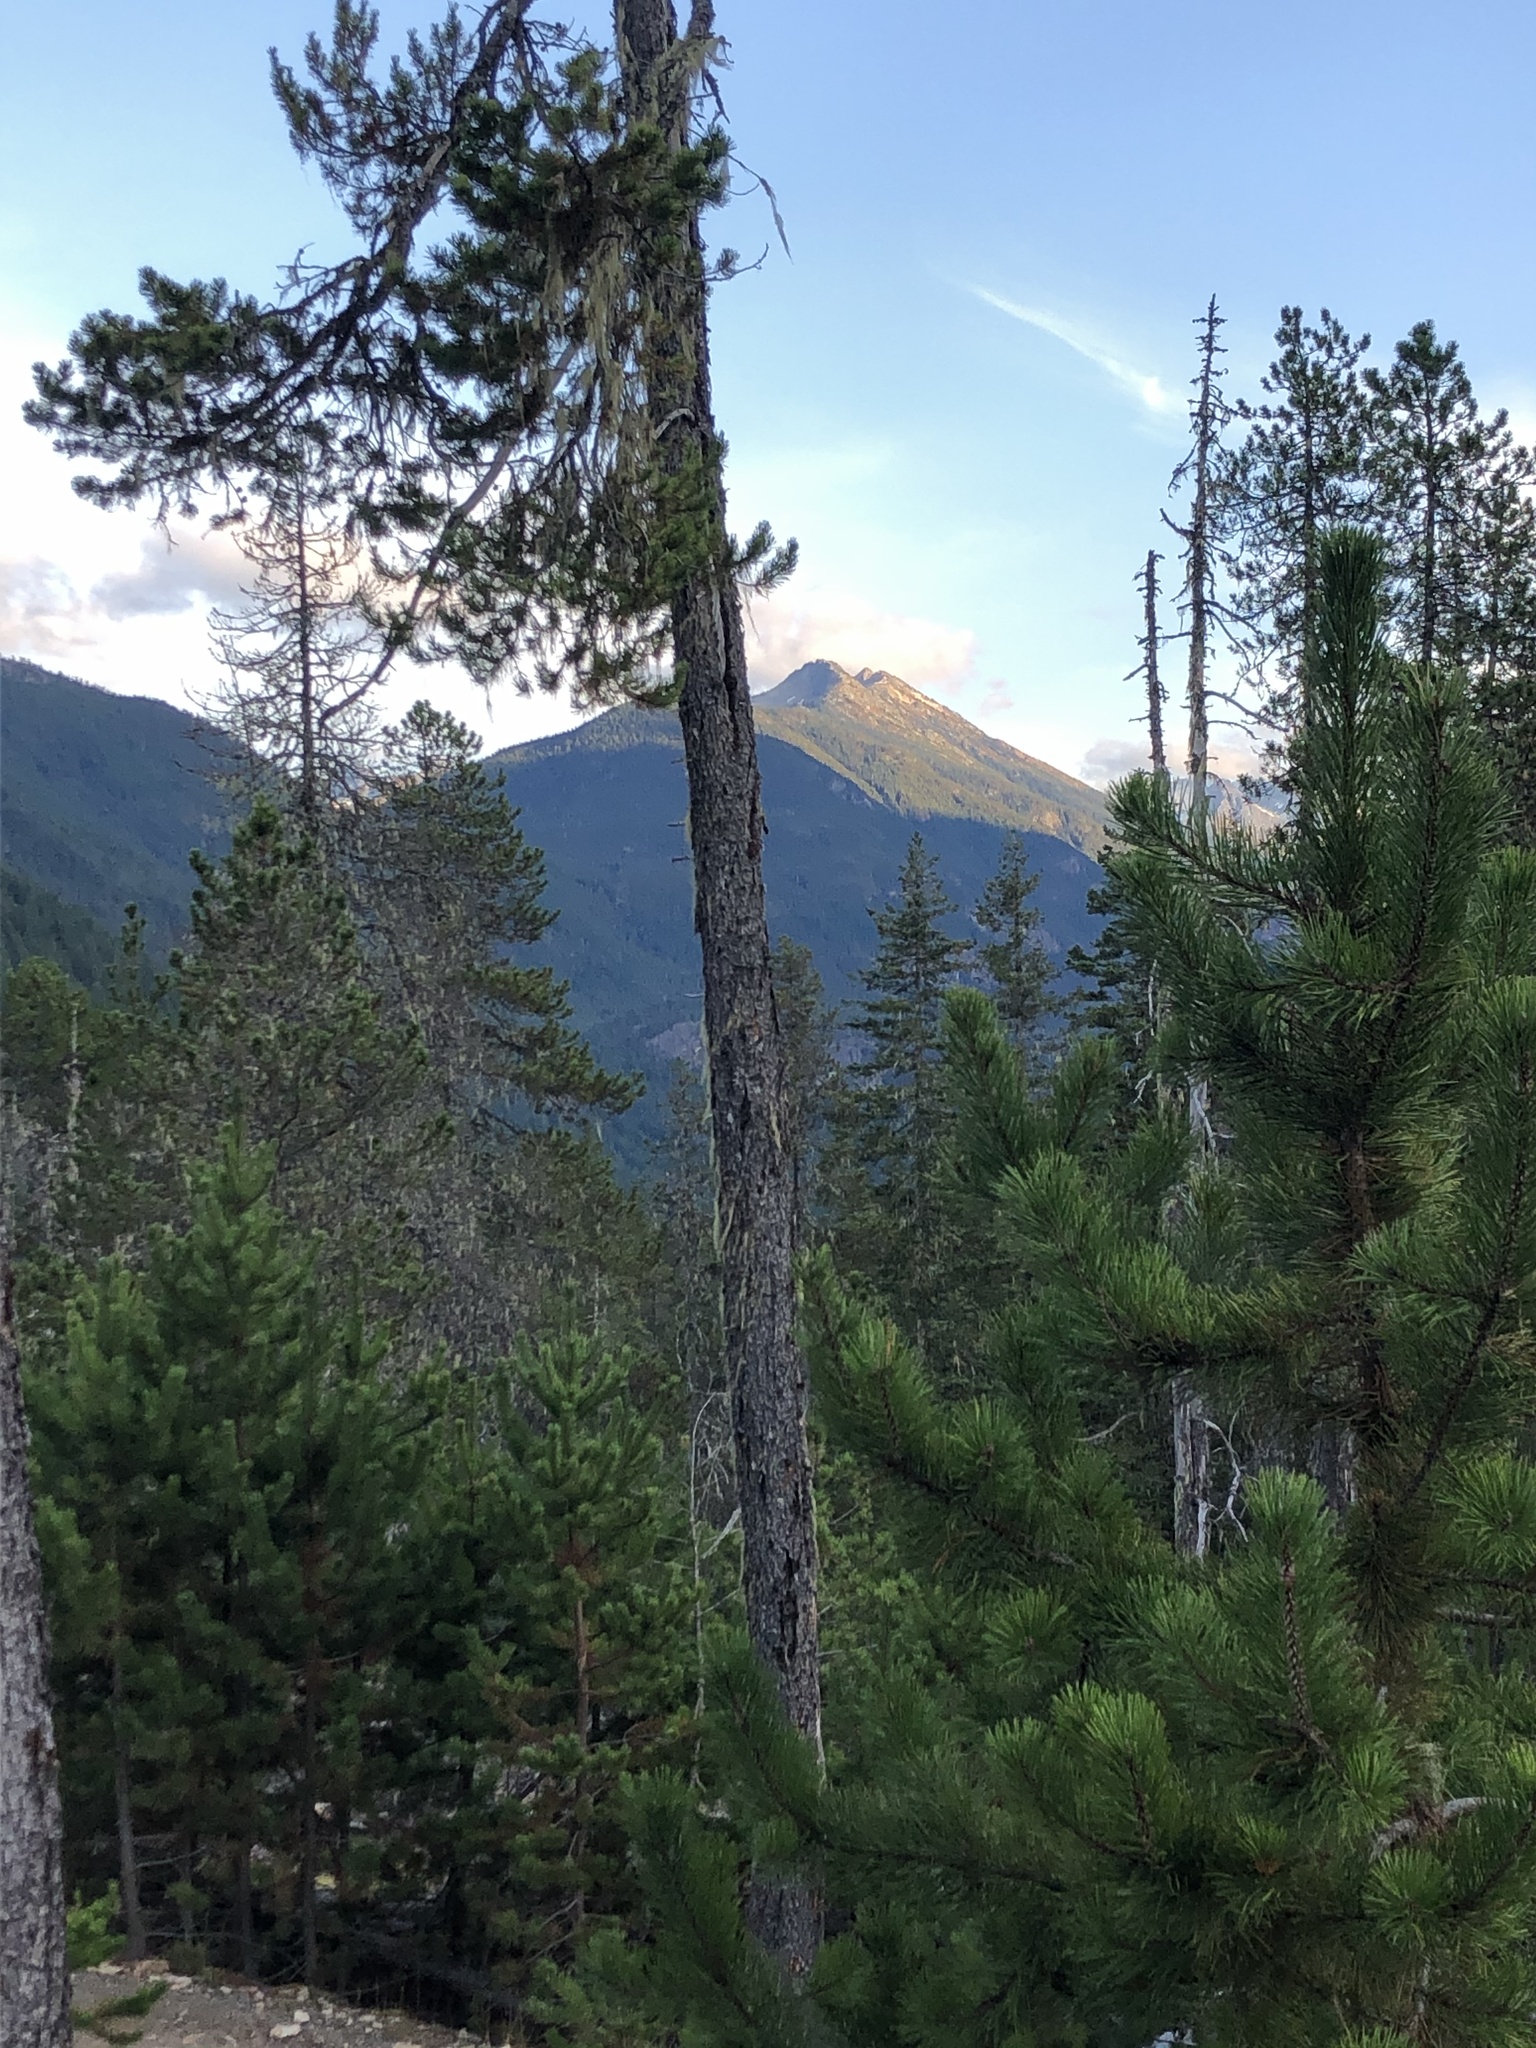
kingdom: Plantae
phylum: Tracheophyta
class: Pinopsida
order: Pinales
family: Pinaceae
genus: Pinus
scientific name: Pinus contorta
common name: Lodgepole pine
